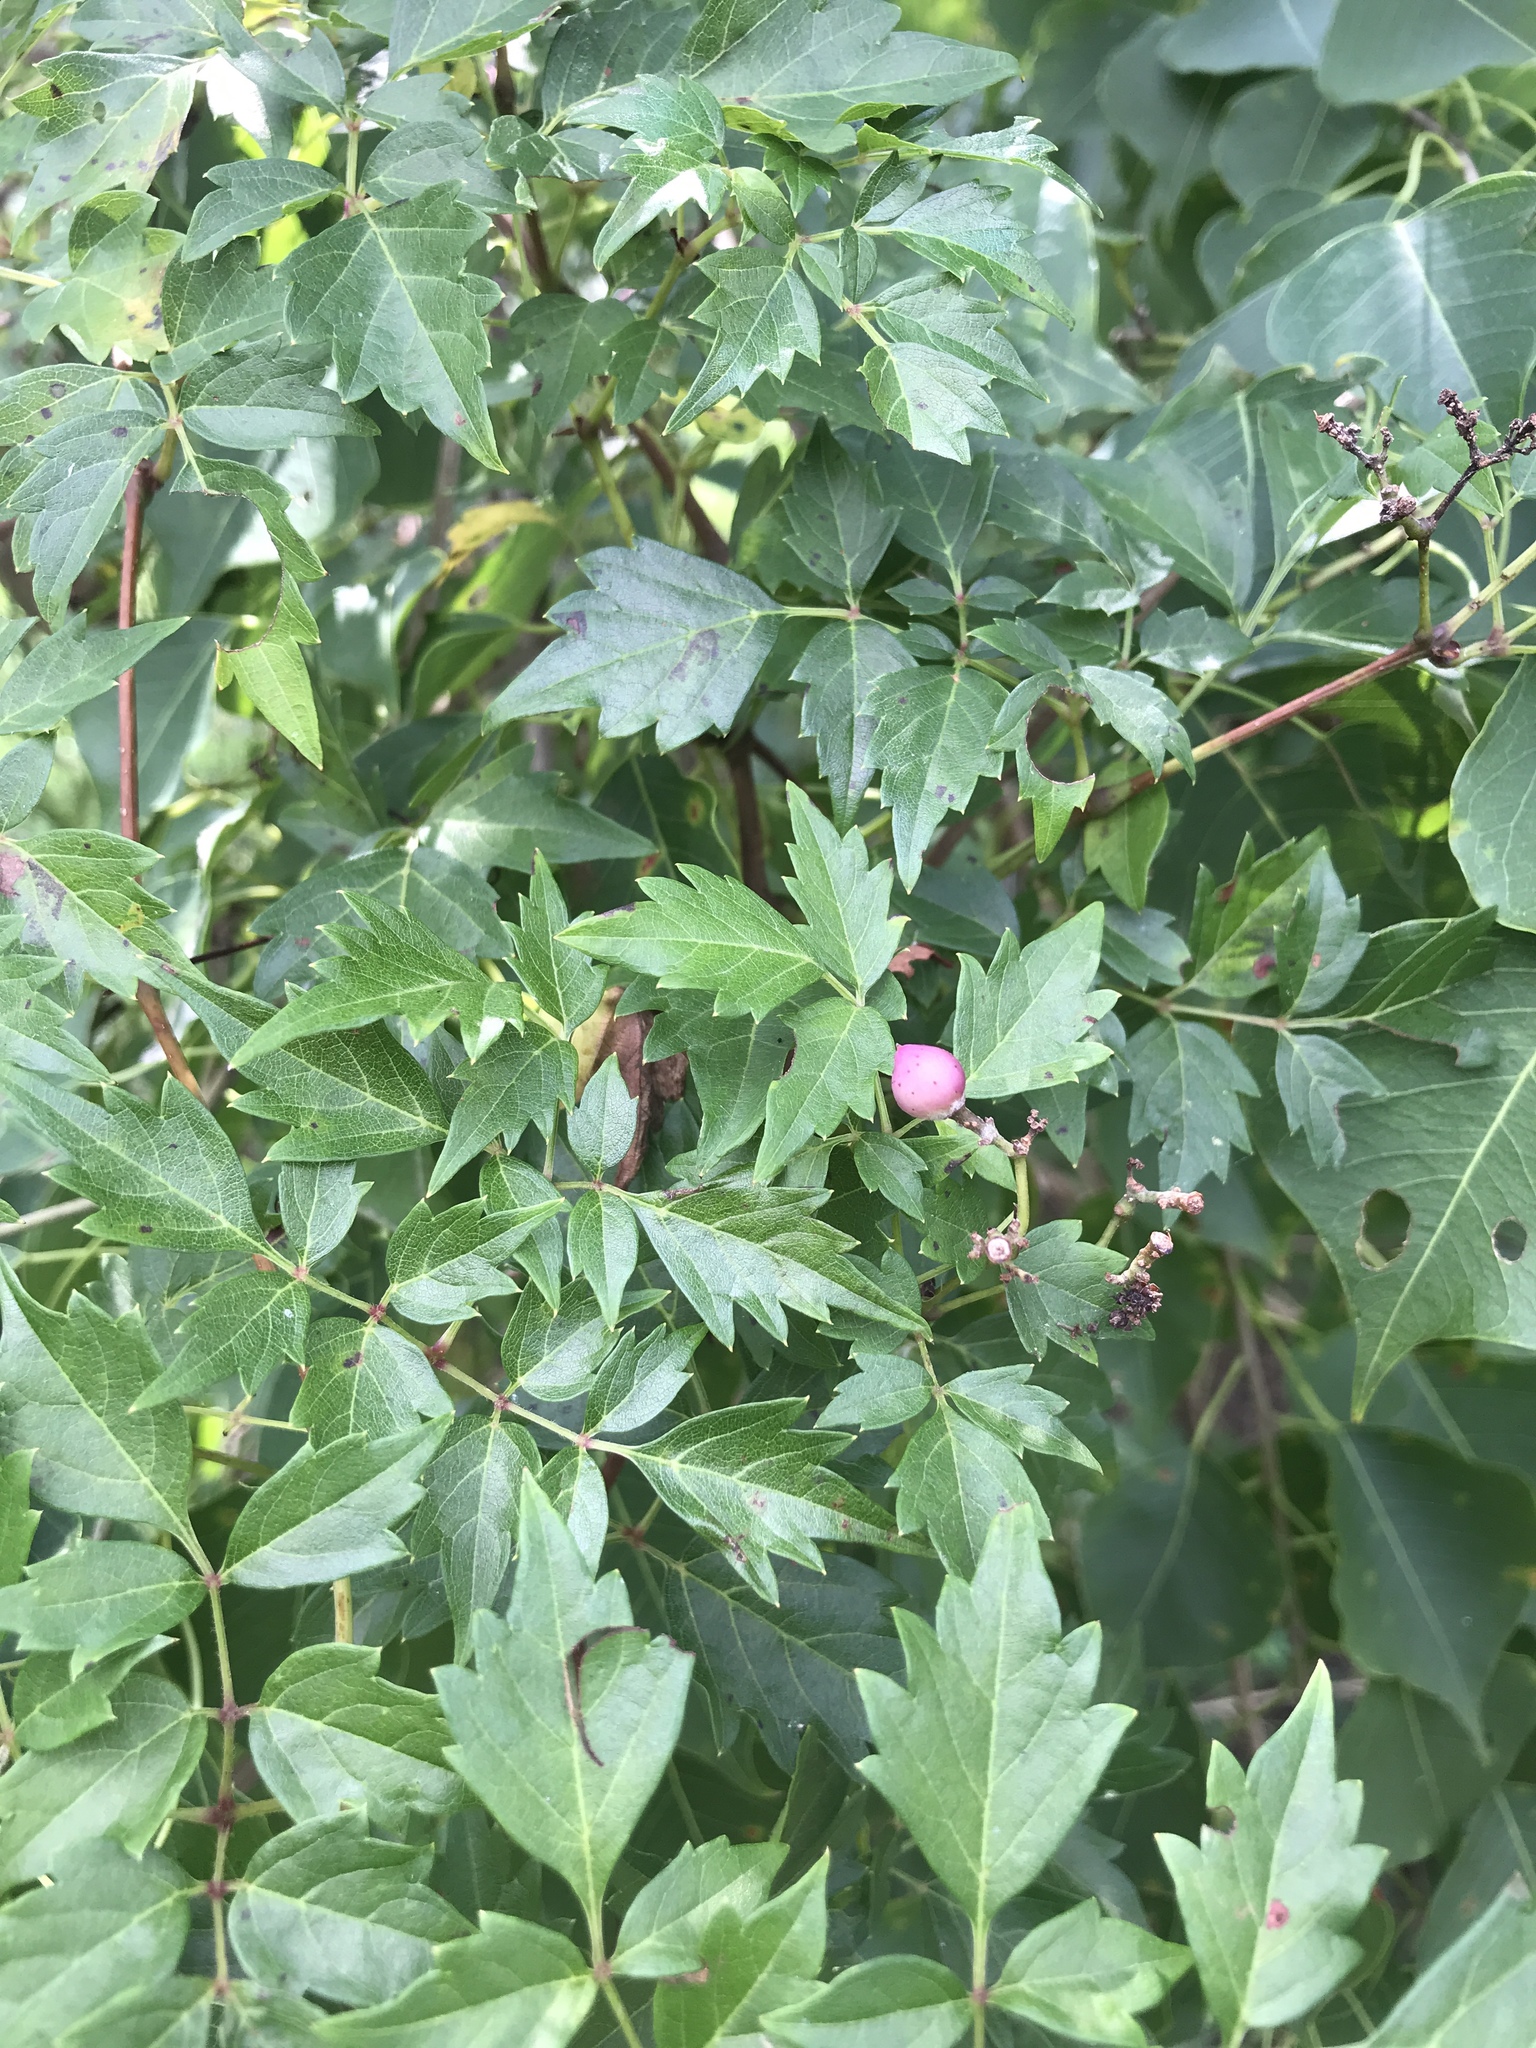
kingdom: Plantae
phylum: Tracheophyta
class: Magnoliopsida
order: Vitales
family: Vitaceae
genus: Nekemias
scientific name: Nekemias arborea
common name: Peppervine
